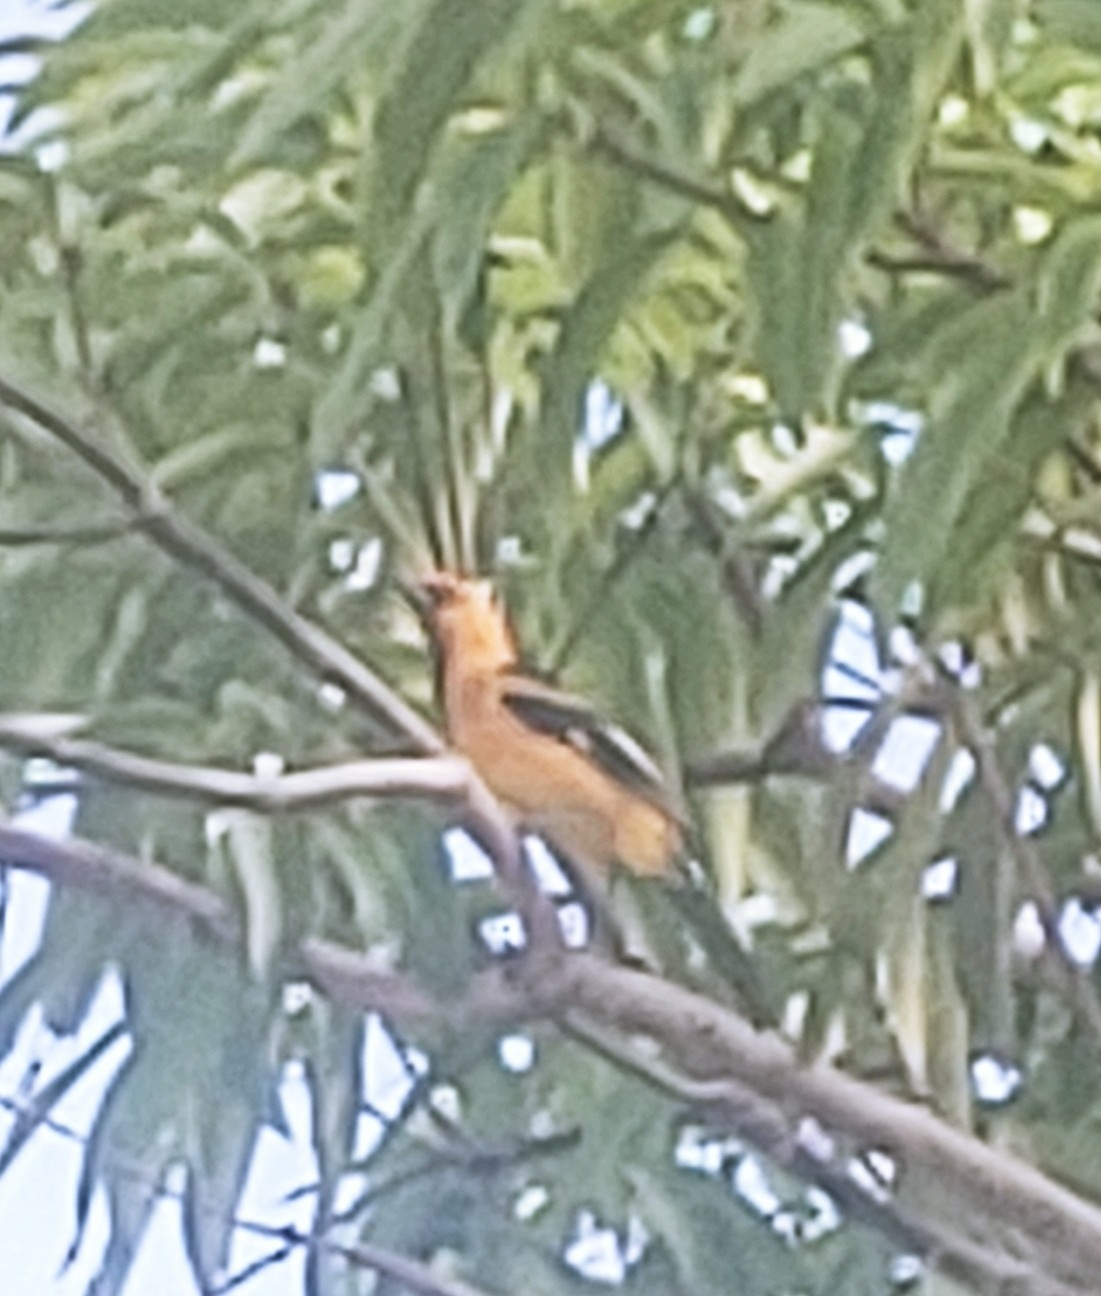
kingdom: Animalia
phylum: Chordata
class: Aves
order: Passeriformes
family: Icteridae
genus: Icterus
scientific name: Icterus pectoralis
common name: Spot-breasted oriole
